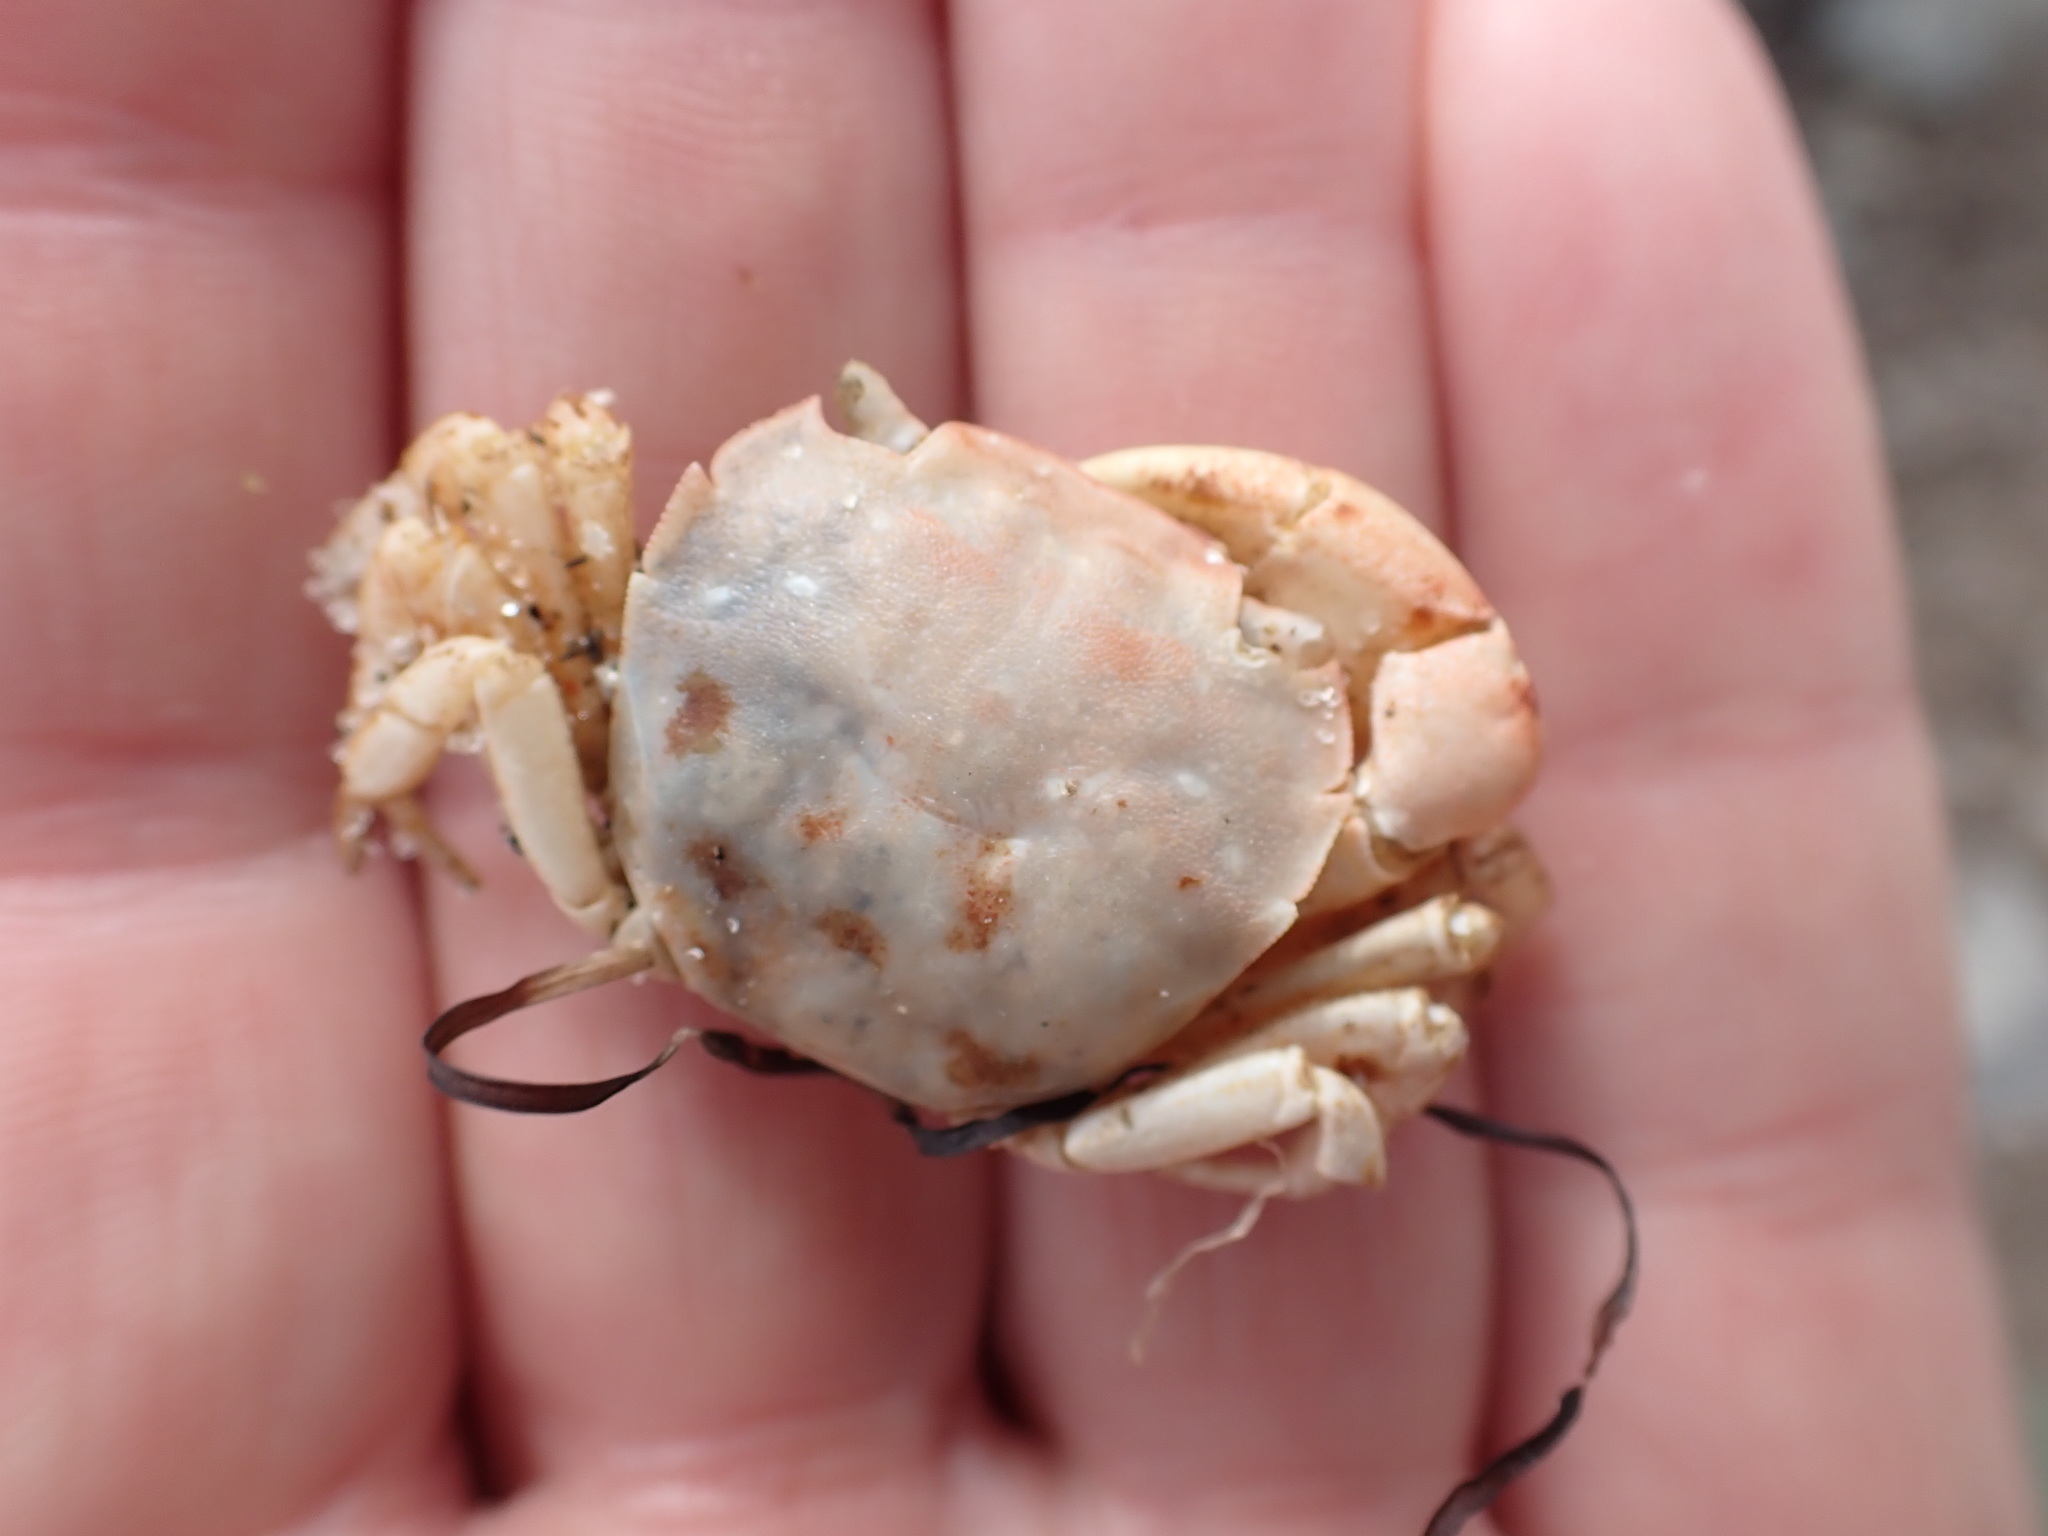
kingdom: Animalia
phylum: Arthropoda
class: Malacostraca
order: Decapoda
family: Varunidae
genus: Hemigrapsus
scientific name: Hemigrapsus crenulatus
